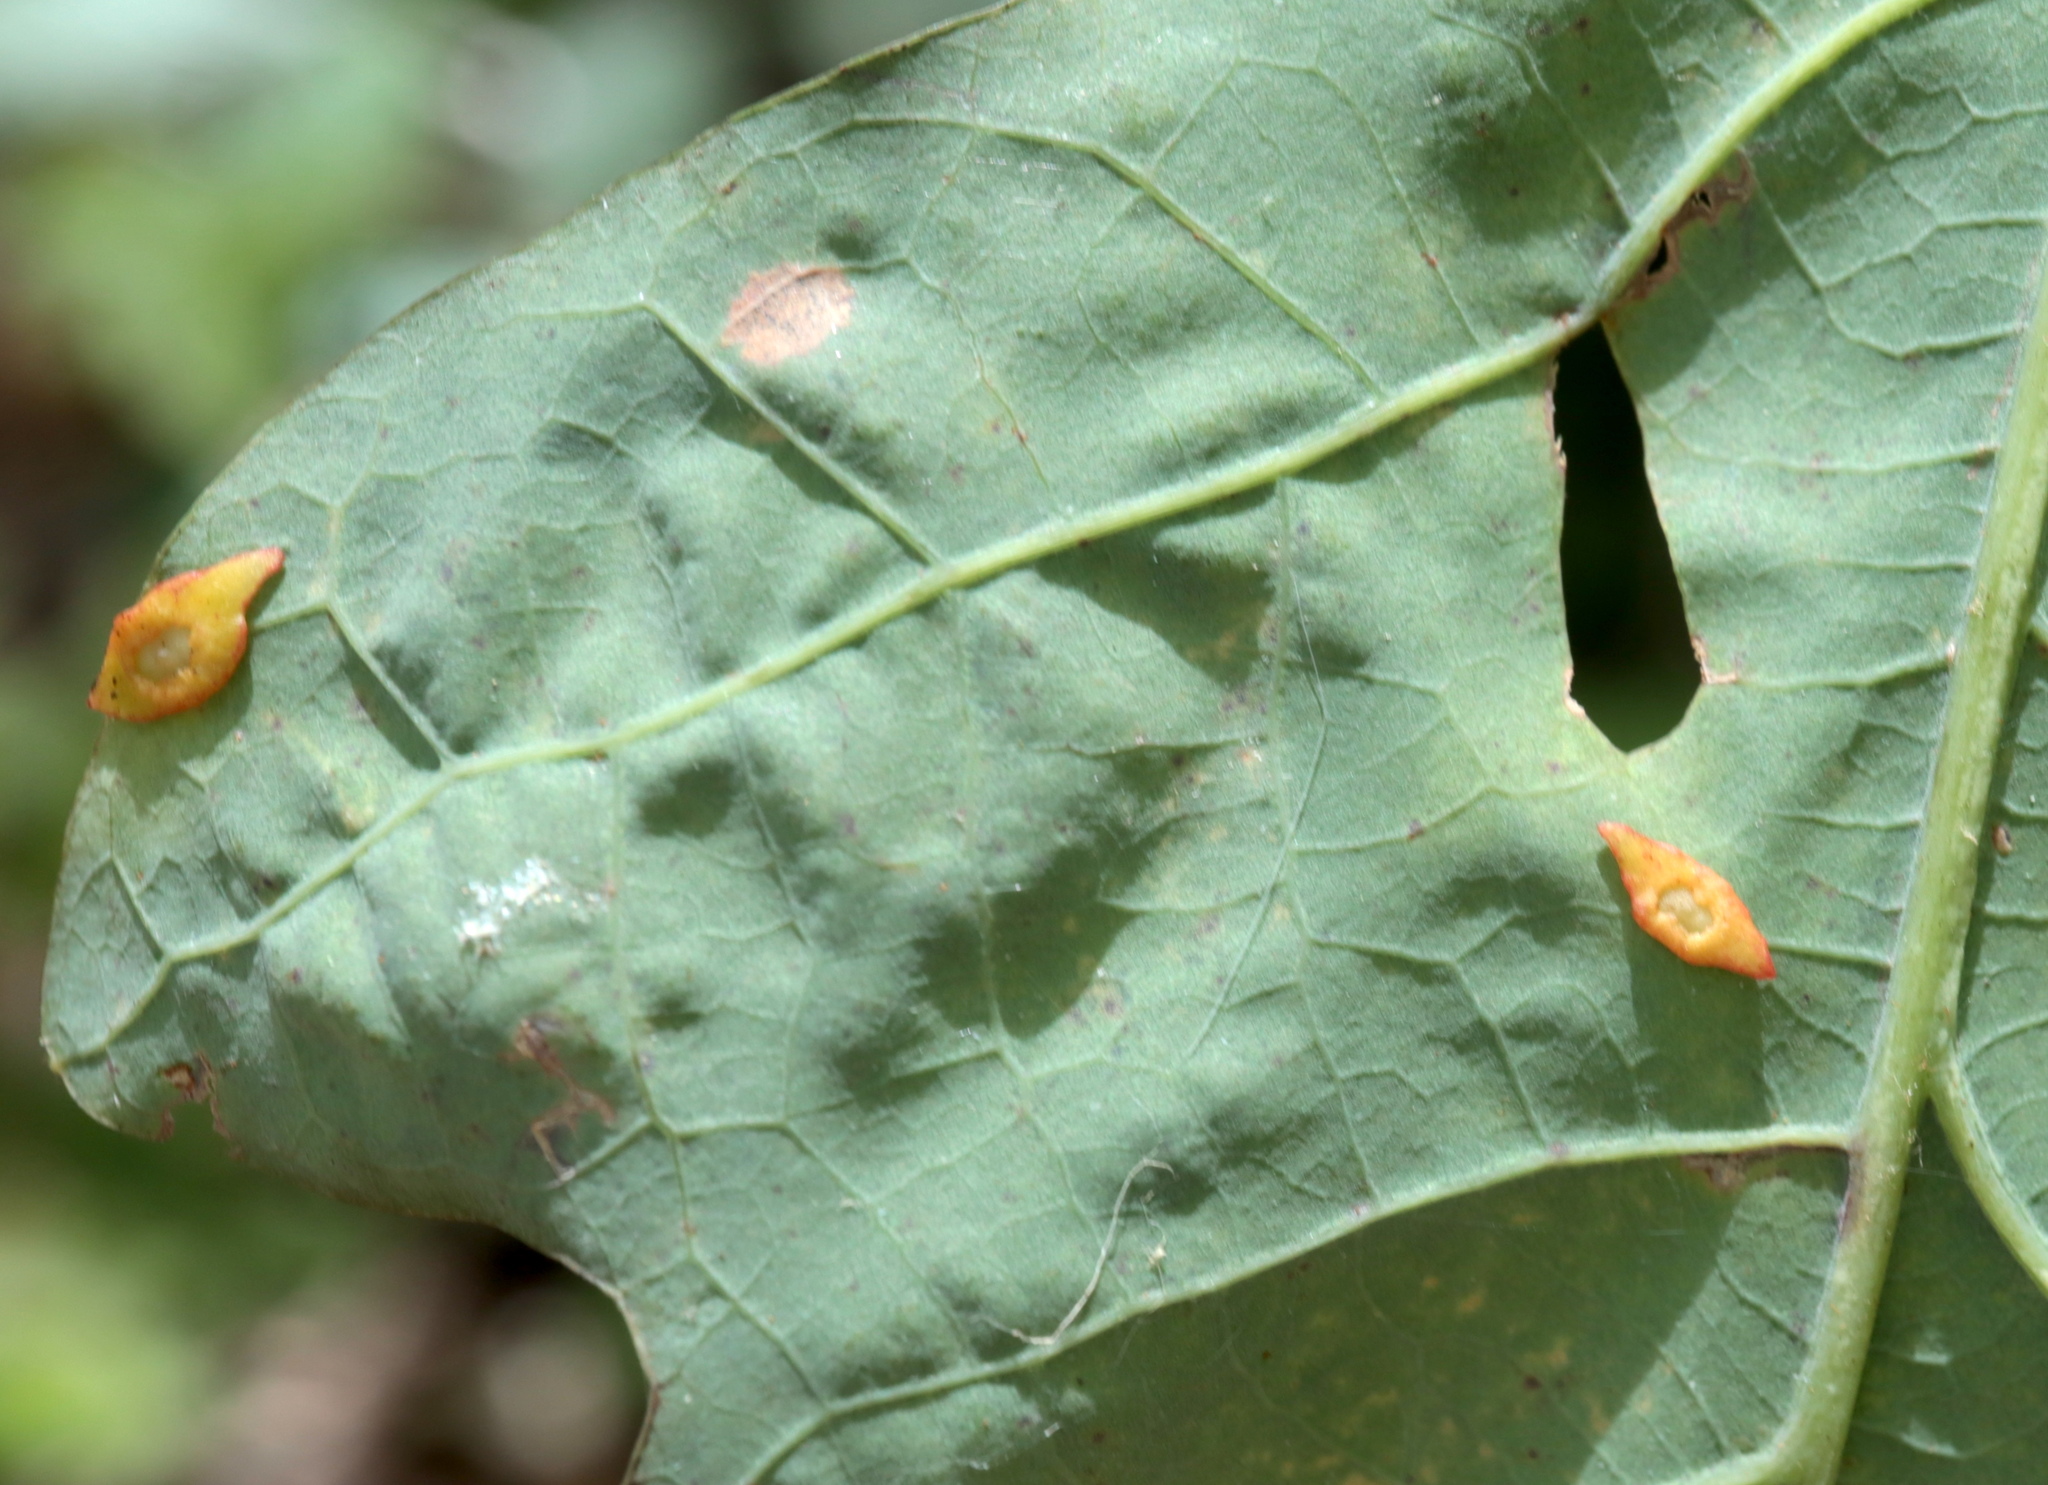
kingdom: Animalia
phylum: Arthropoda
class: Insecta
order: Hymenoptera
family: Cynipidae
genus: Phylloteras
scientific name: Phylloteras
